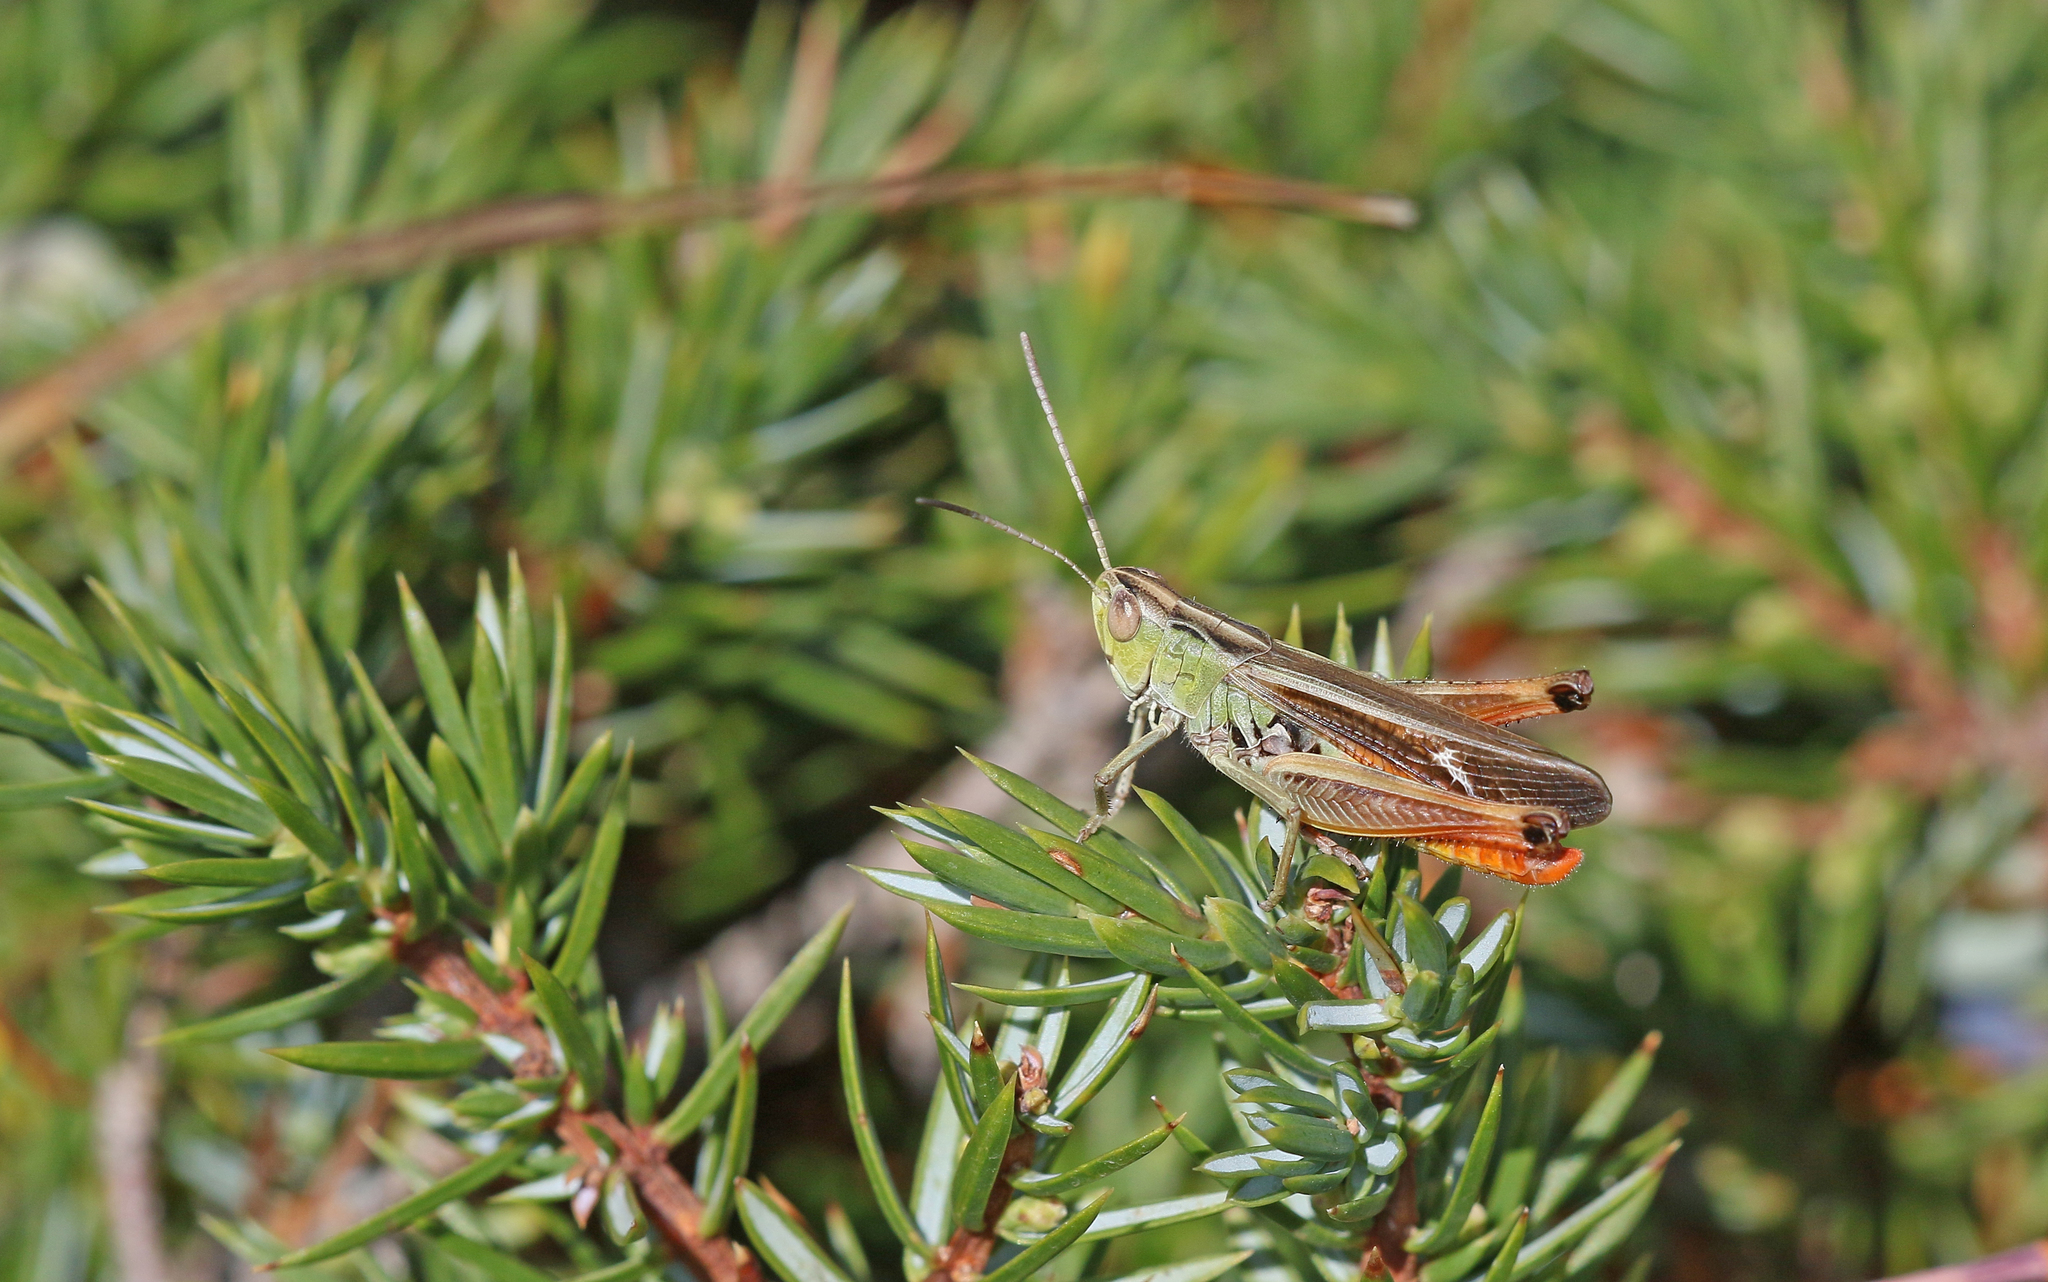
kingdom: Animalia
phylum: Arthropoda
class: Insecta
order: Orthoptera
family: Acrididae
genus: Stenobothrus
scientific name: Stenobothrus lineatus
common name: Stripe-winged grasshopper
